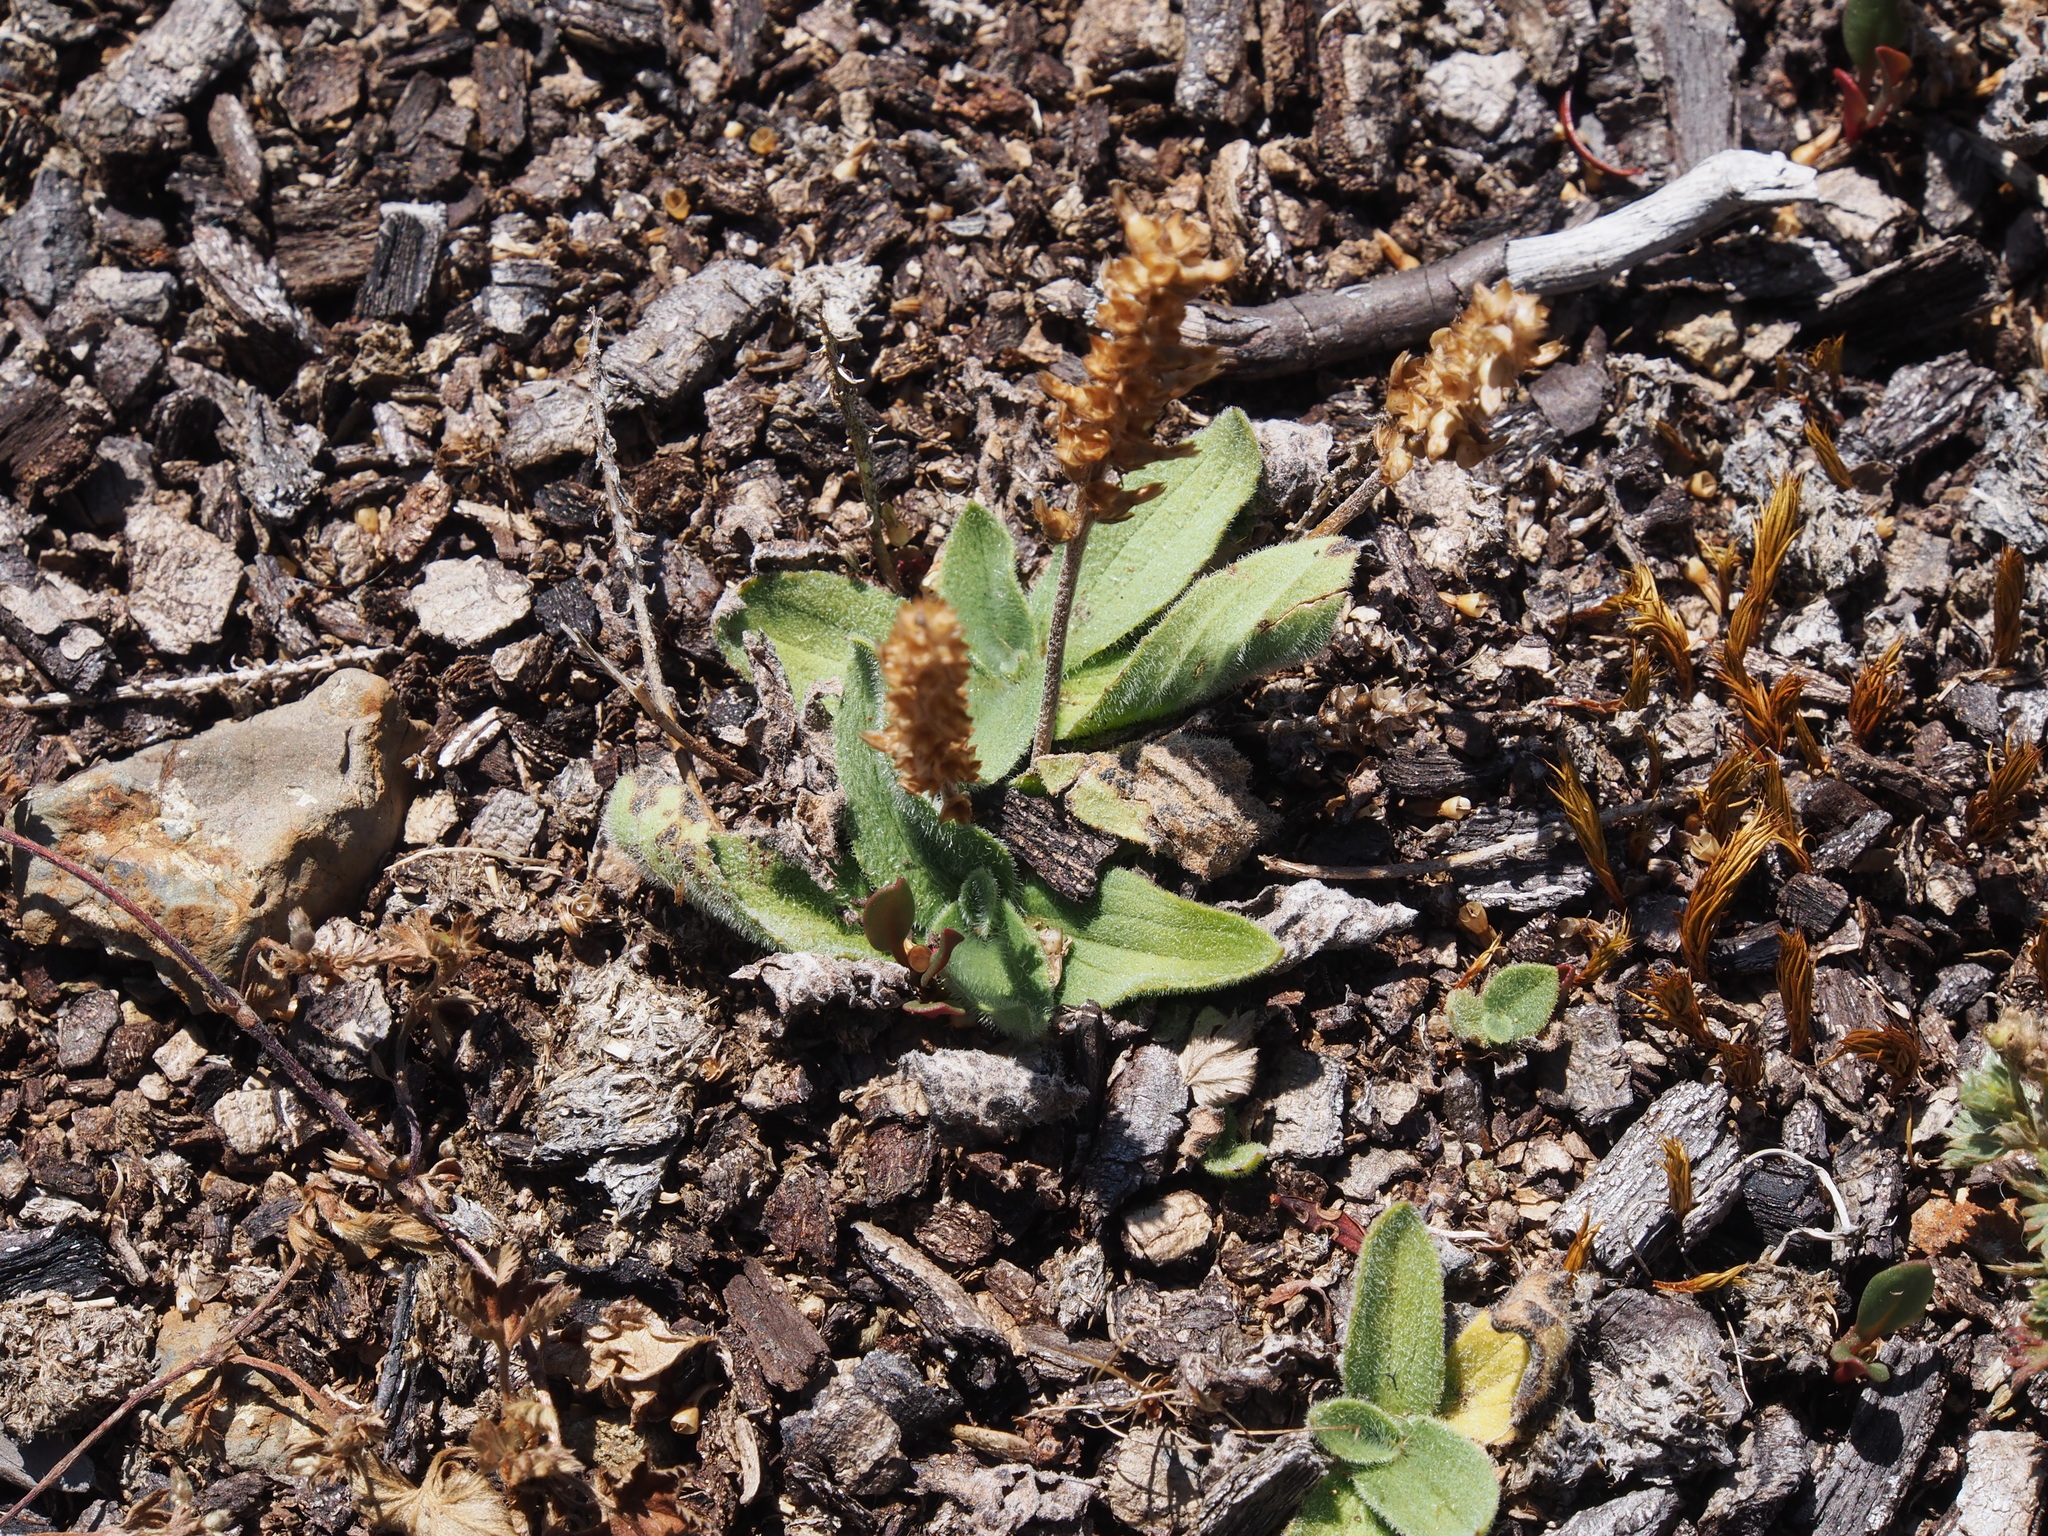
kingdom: Plantae
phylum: Tracheophyta
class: Magnoliopsida
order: Lamiales
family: Plantaginaceae
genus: Plantago
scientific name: Plantago australis
